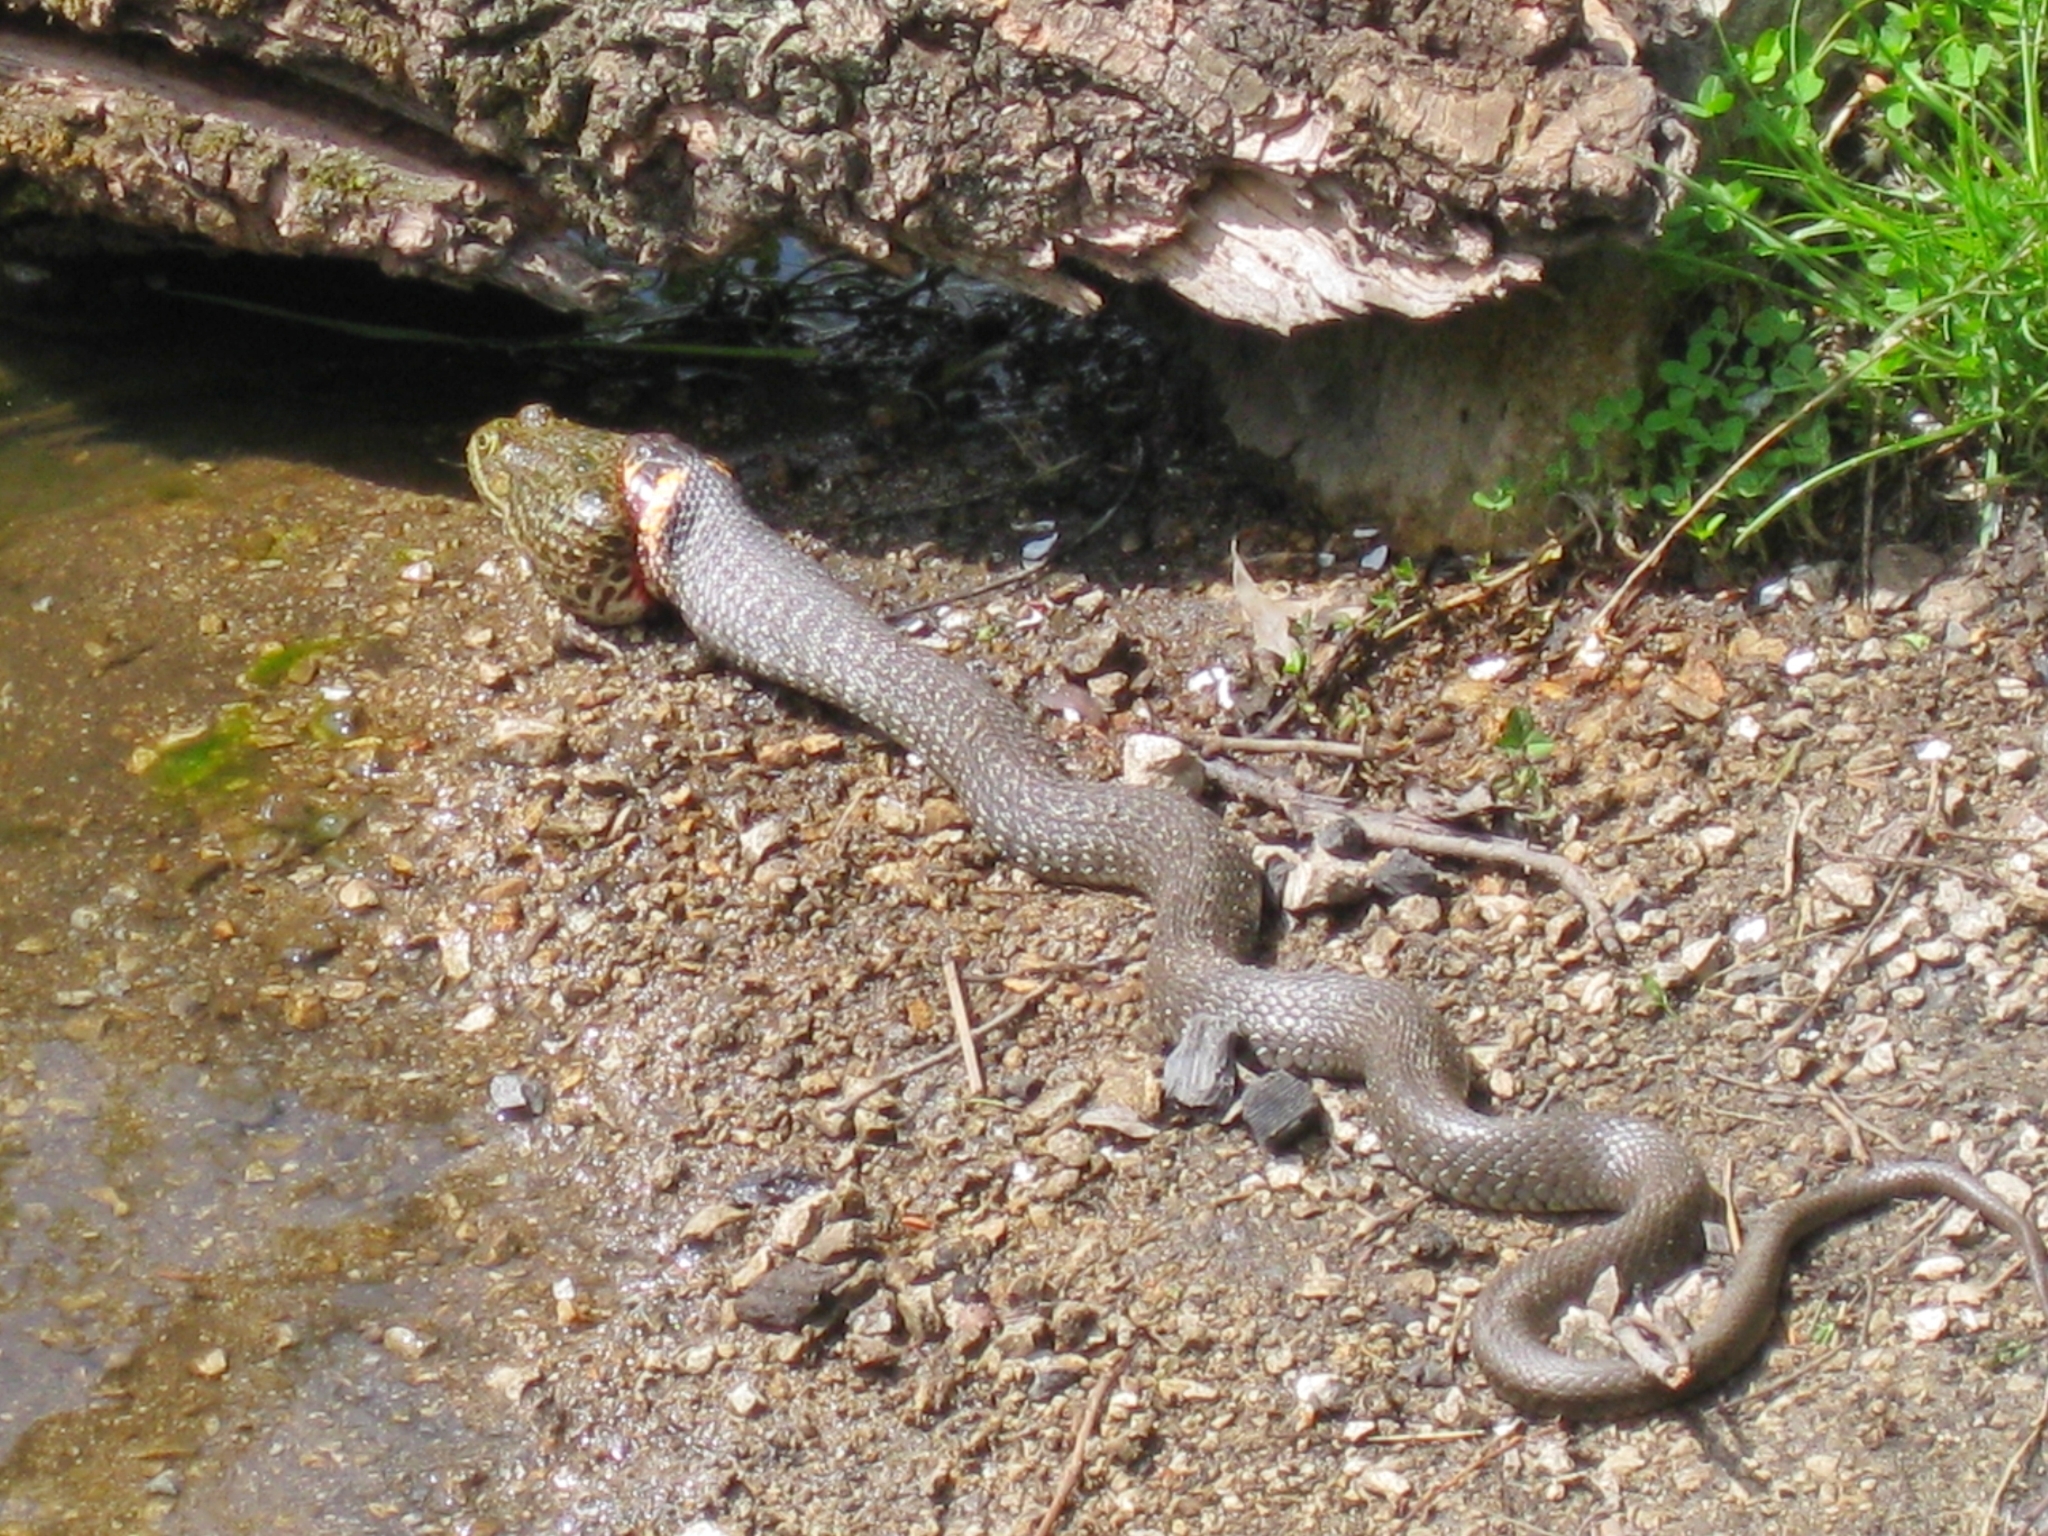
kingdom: Animalia
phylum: Chordata
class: Squamata
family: Colubridae
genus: Natrix
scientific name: Natrix natrix
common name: Grass snake
